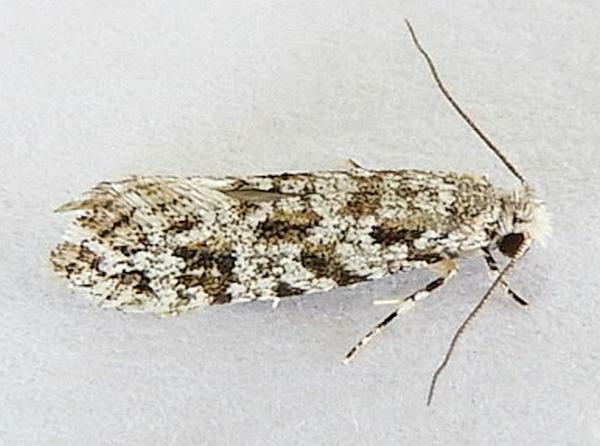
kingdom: Animalia
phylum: Arthropoda
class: Insecta
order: Lepidoptera
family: Meessiidae
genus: Diachorisia
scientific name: Diachorisia velatella
